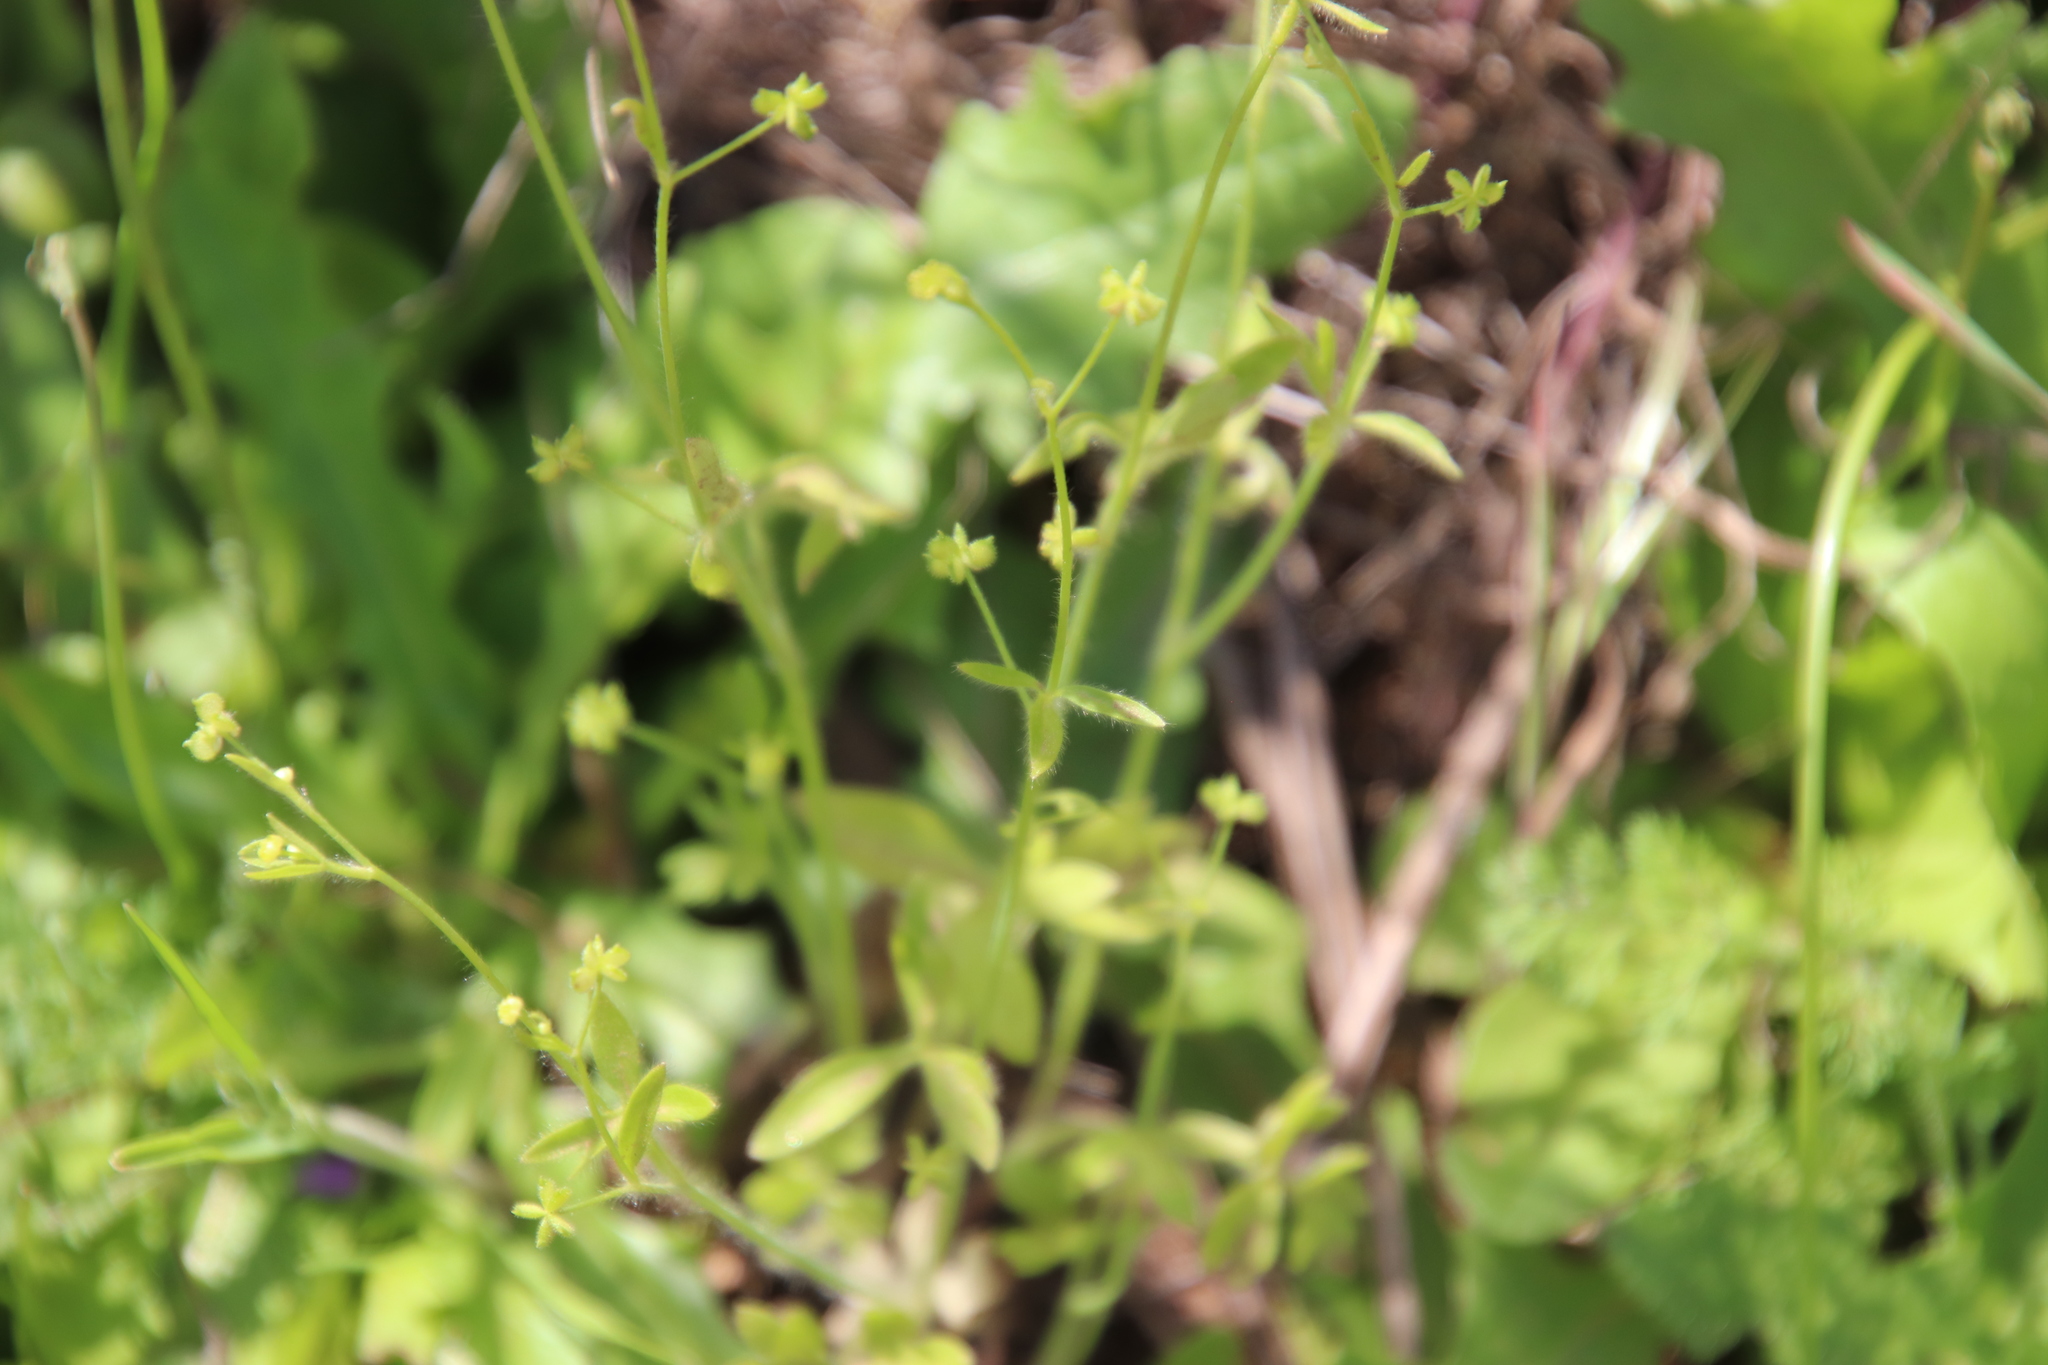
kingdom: Plantae
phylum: Tracheophyta
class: Magnoliopsida
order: Ranunculales
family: Ranunculaceae
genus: Ranunculus
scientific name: Ranunculus hebecarpus
